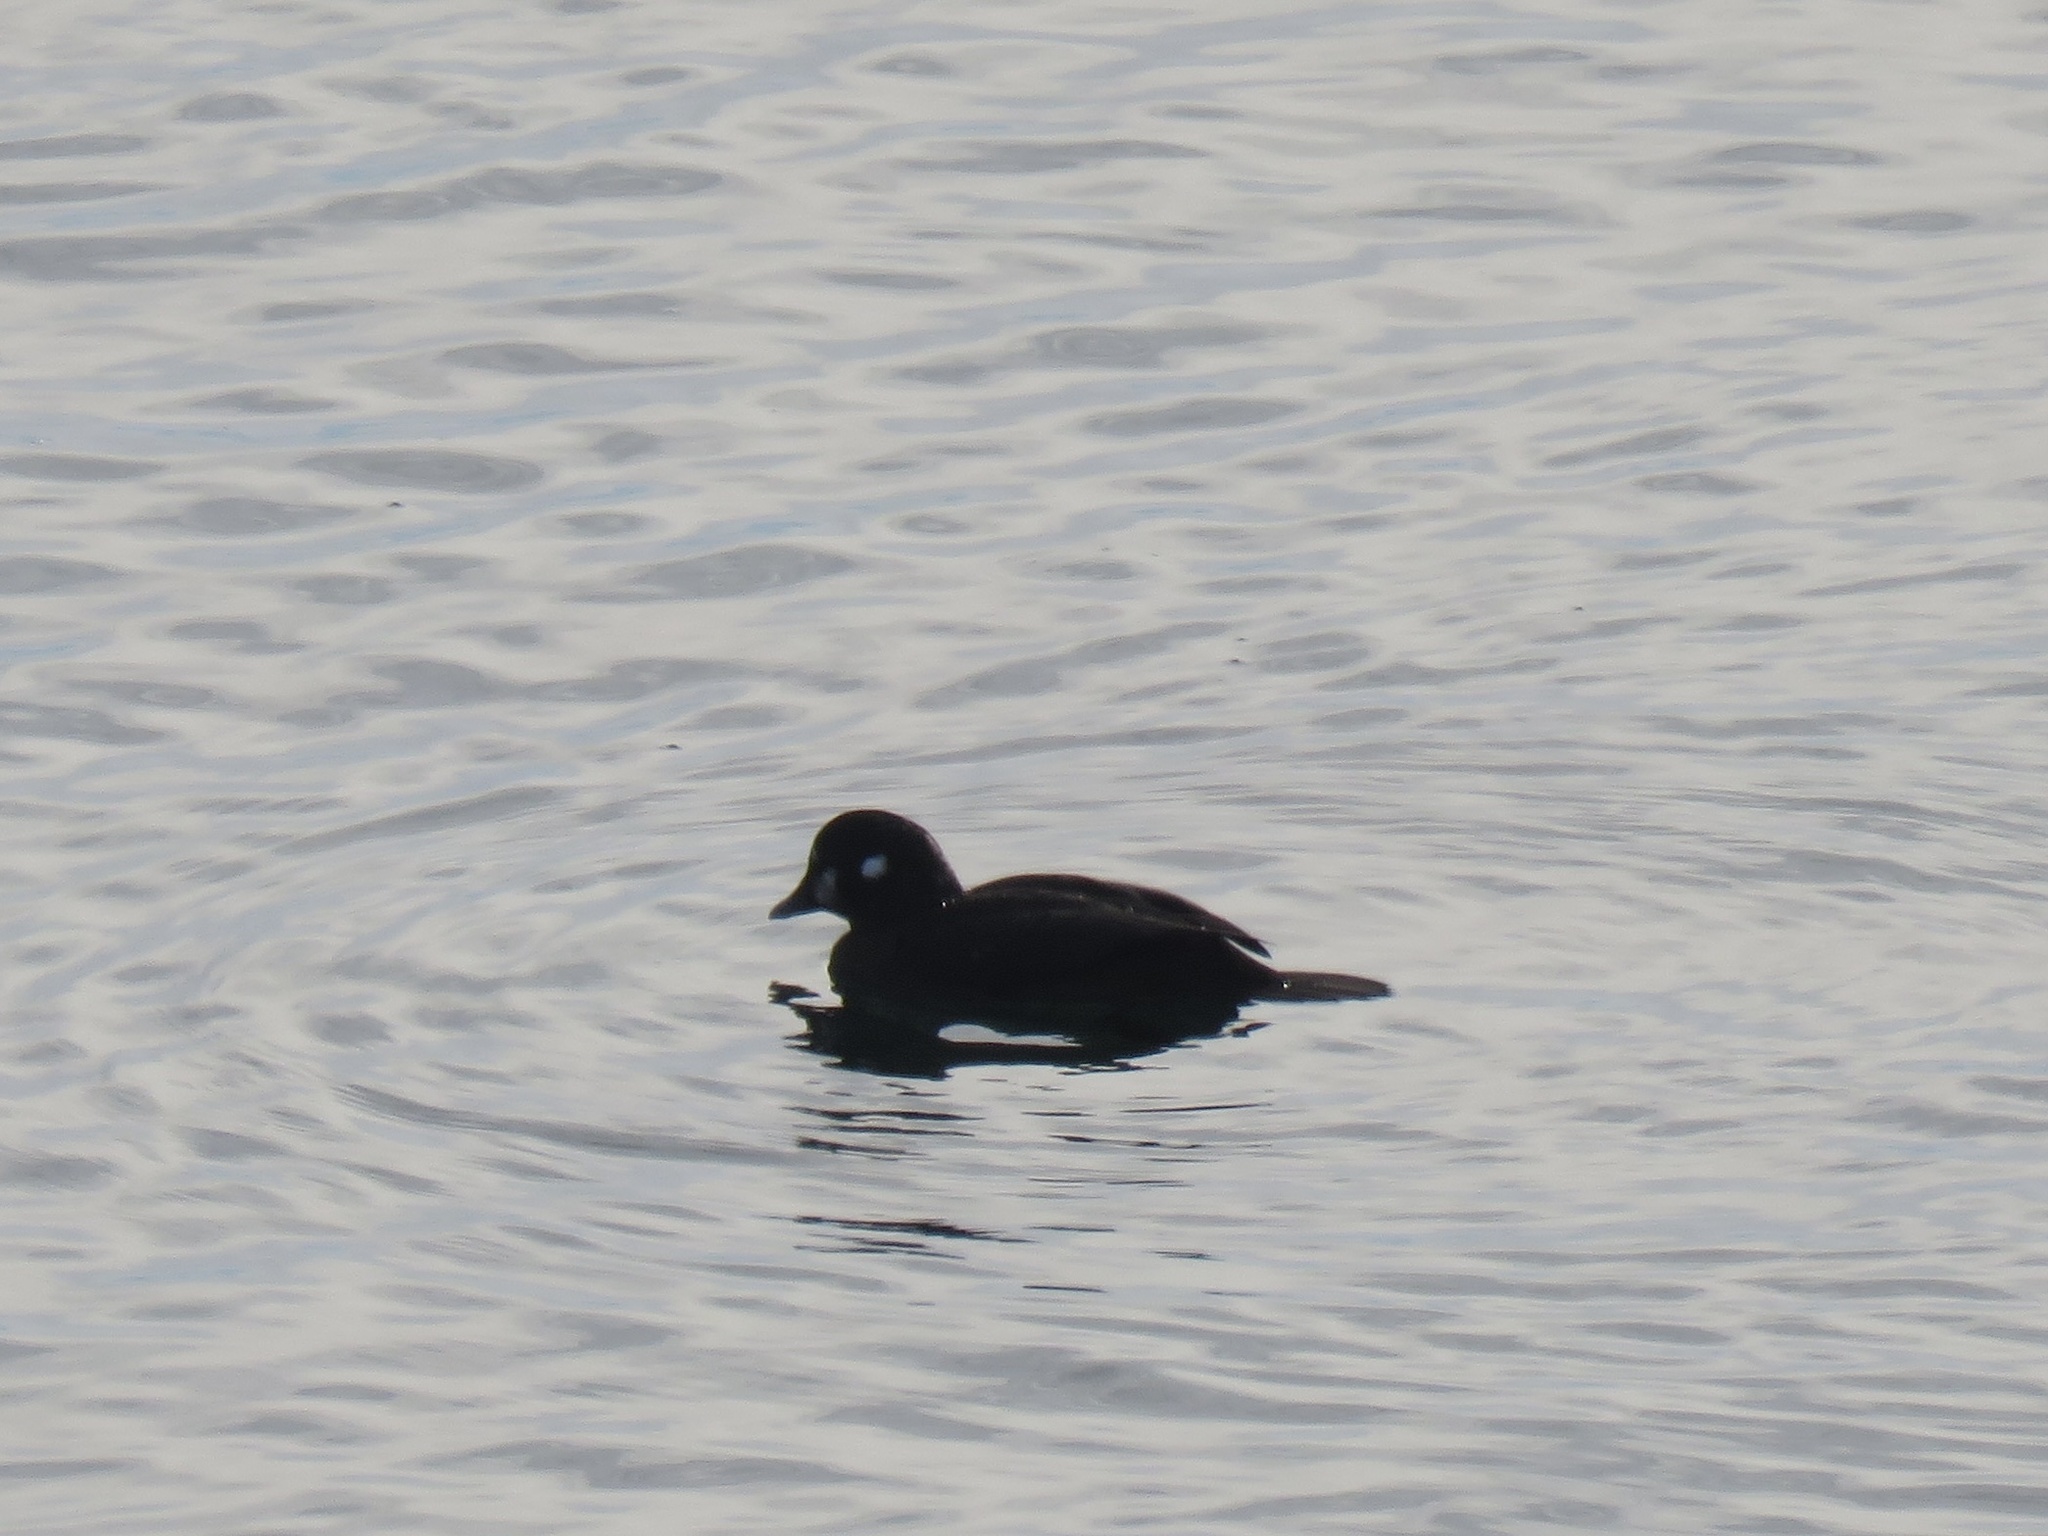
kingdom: Animalia
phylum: Chordata
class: Aves
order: Anseriformes
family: Anatidae
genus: Histrionicus
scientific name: Histrionicus histrionicus
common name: Harlequin duck
